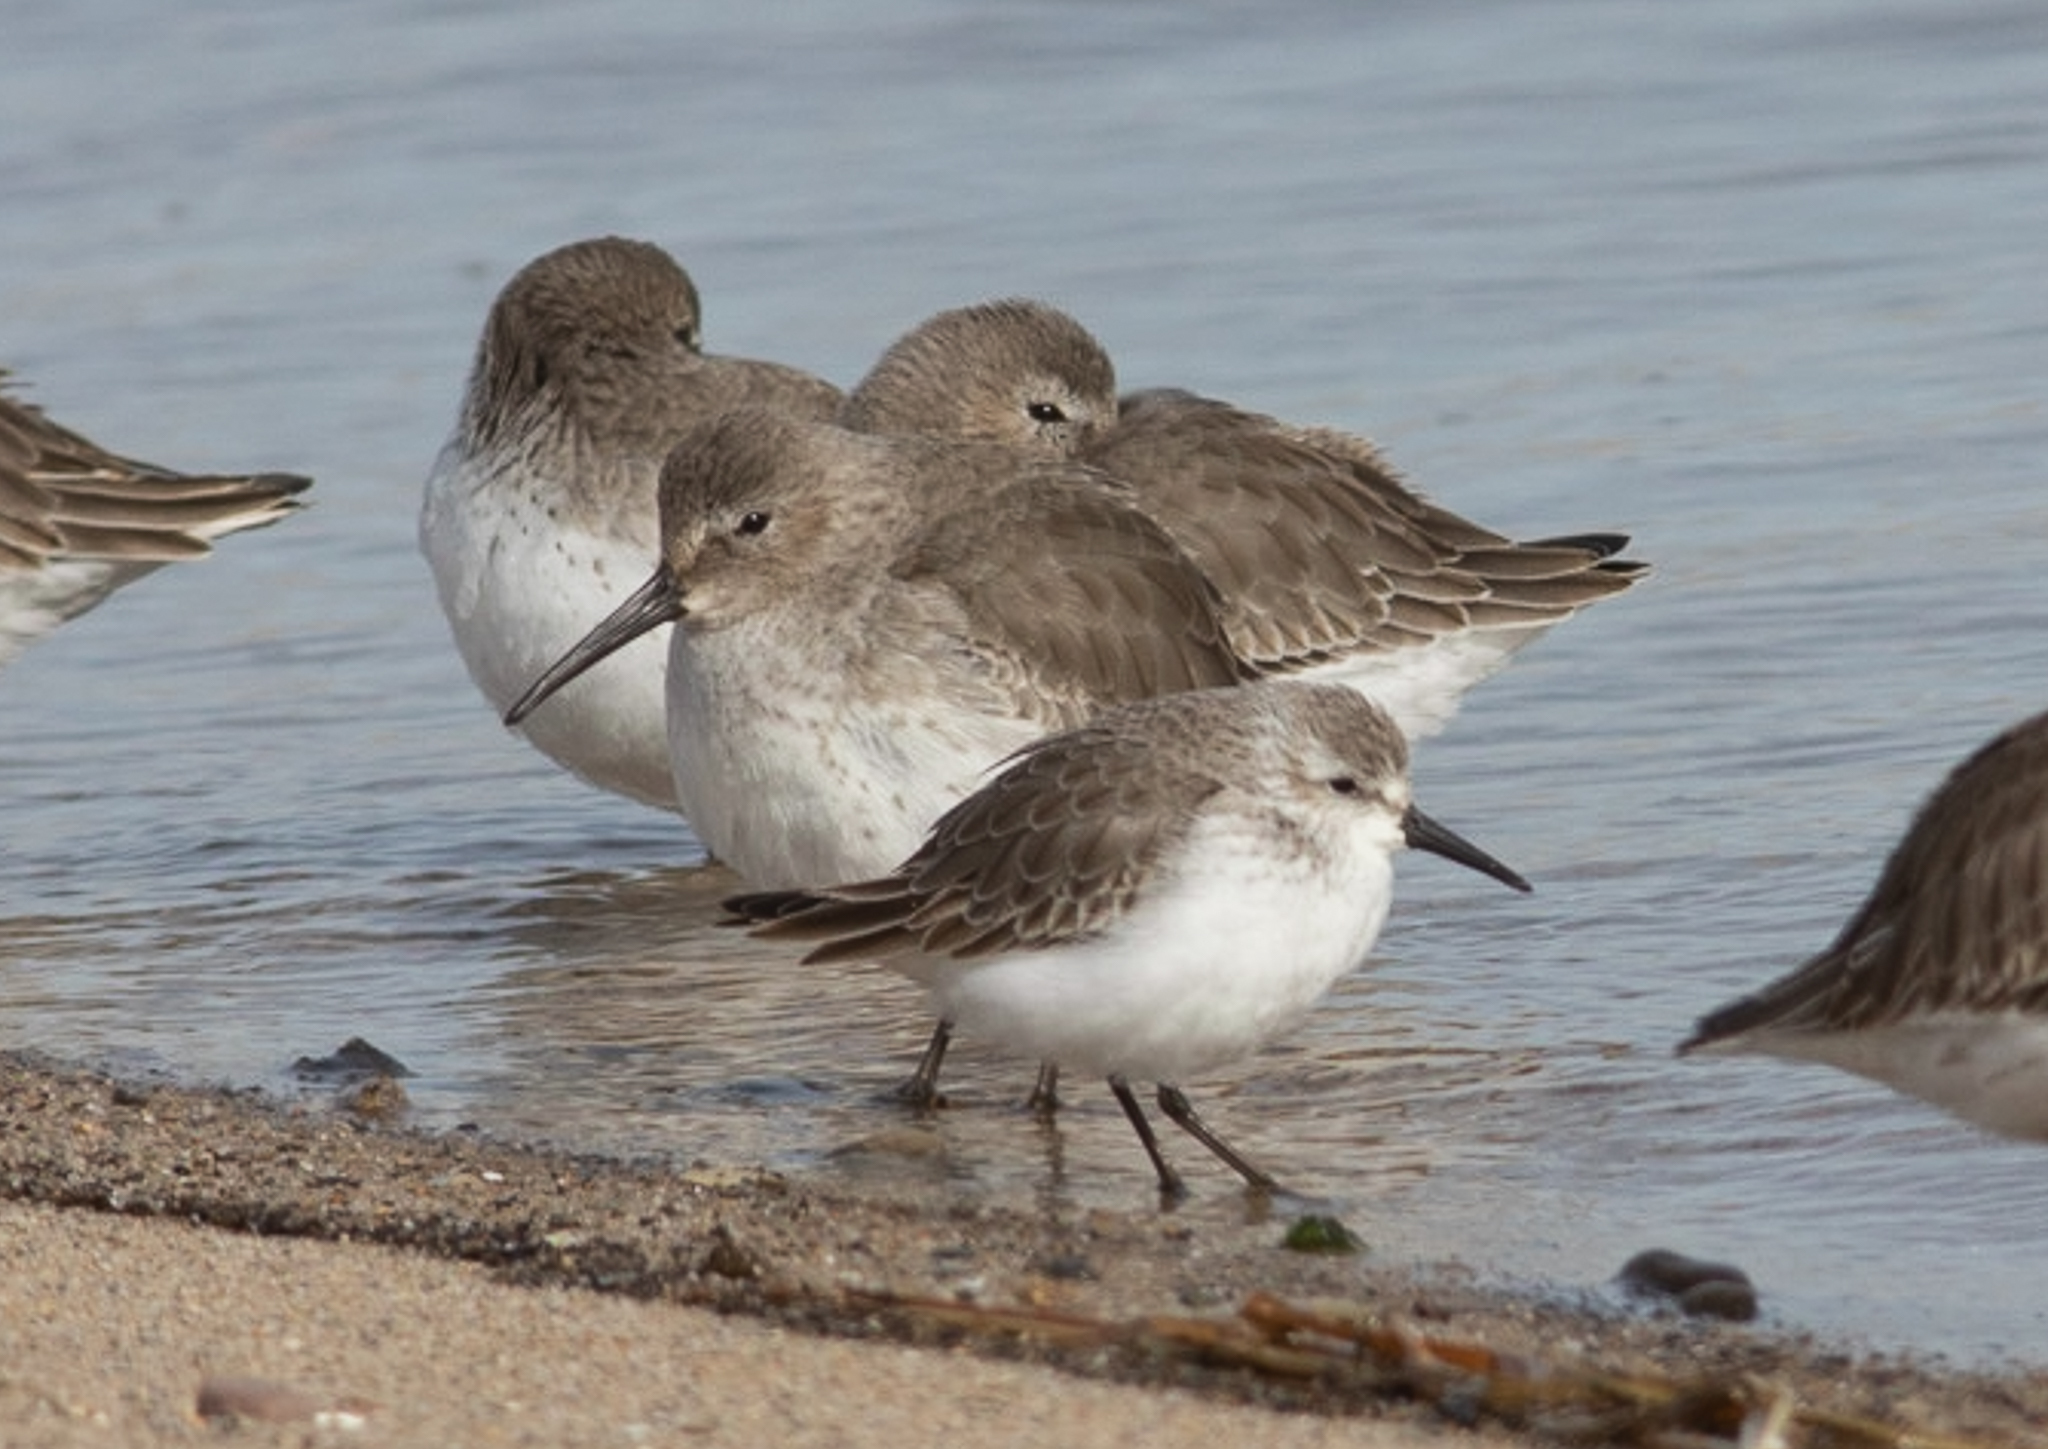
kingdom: Animalia
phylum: Chordata
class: Aves
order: Charadriiformes
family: Scolopacidae
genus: Calidris
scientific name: Calidris mauri
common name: Western sandpiper
